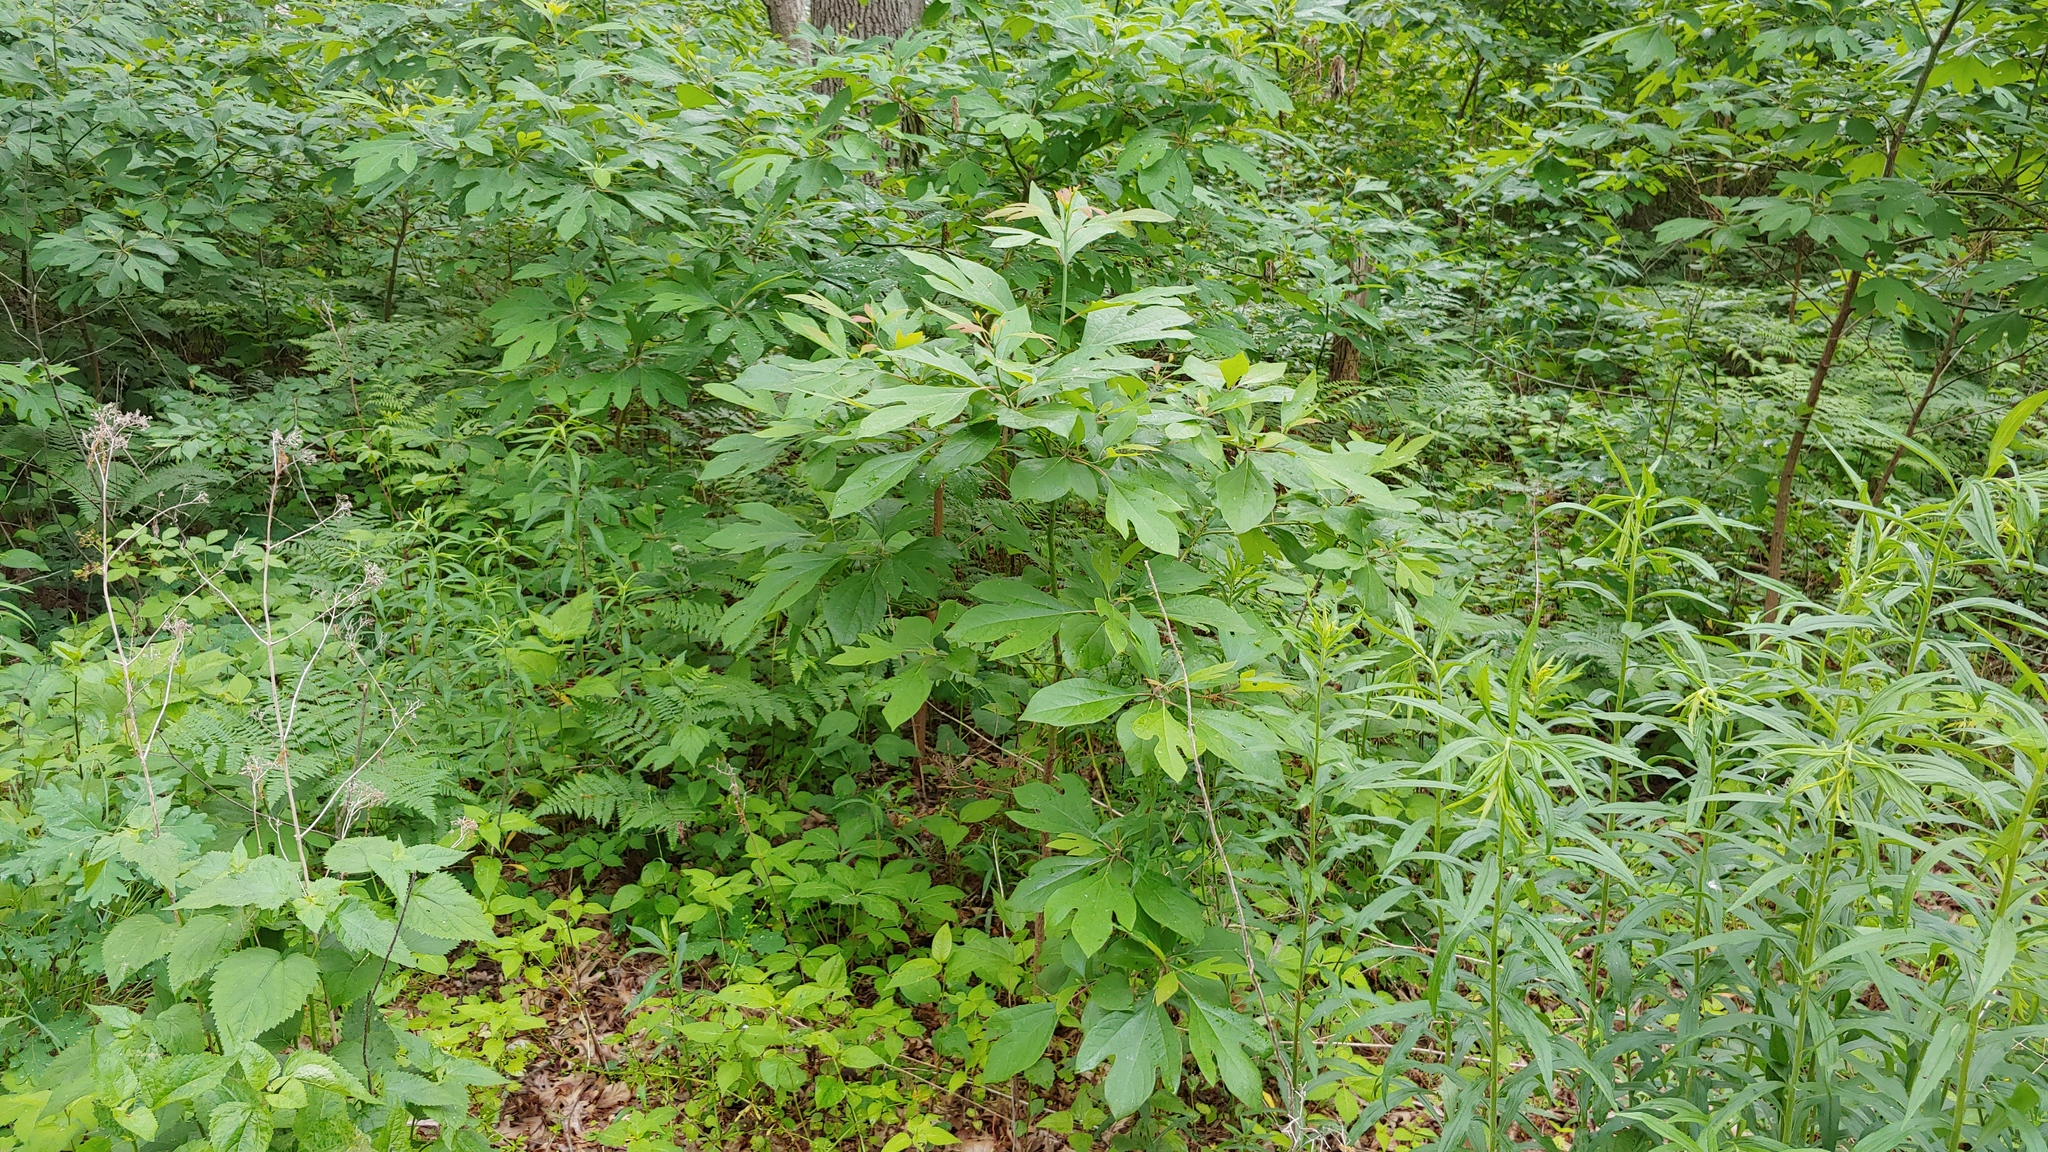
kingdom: Plantae
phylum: Tracheophyta
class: Magnoliopsida
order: Laurales
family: Lauraceae
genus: Sassafras
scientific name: Sassafras albidum
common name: Sassafras
